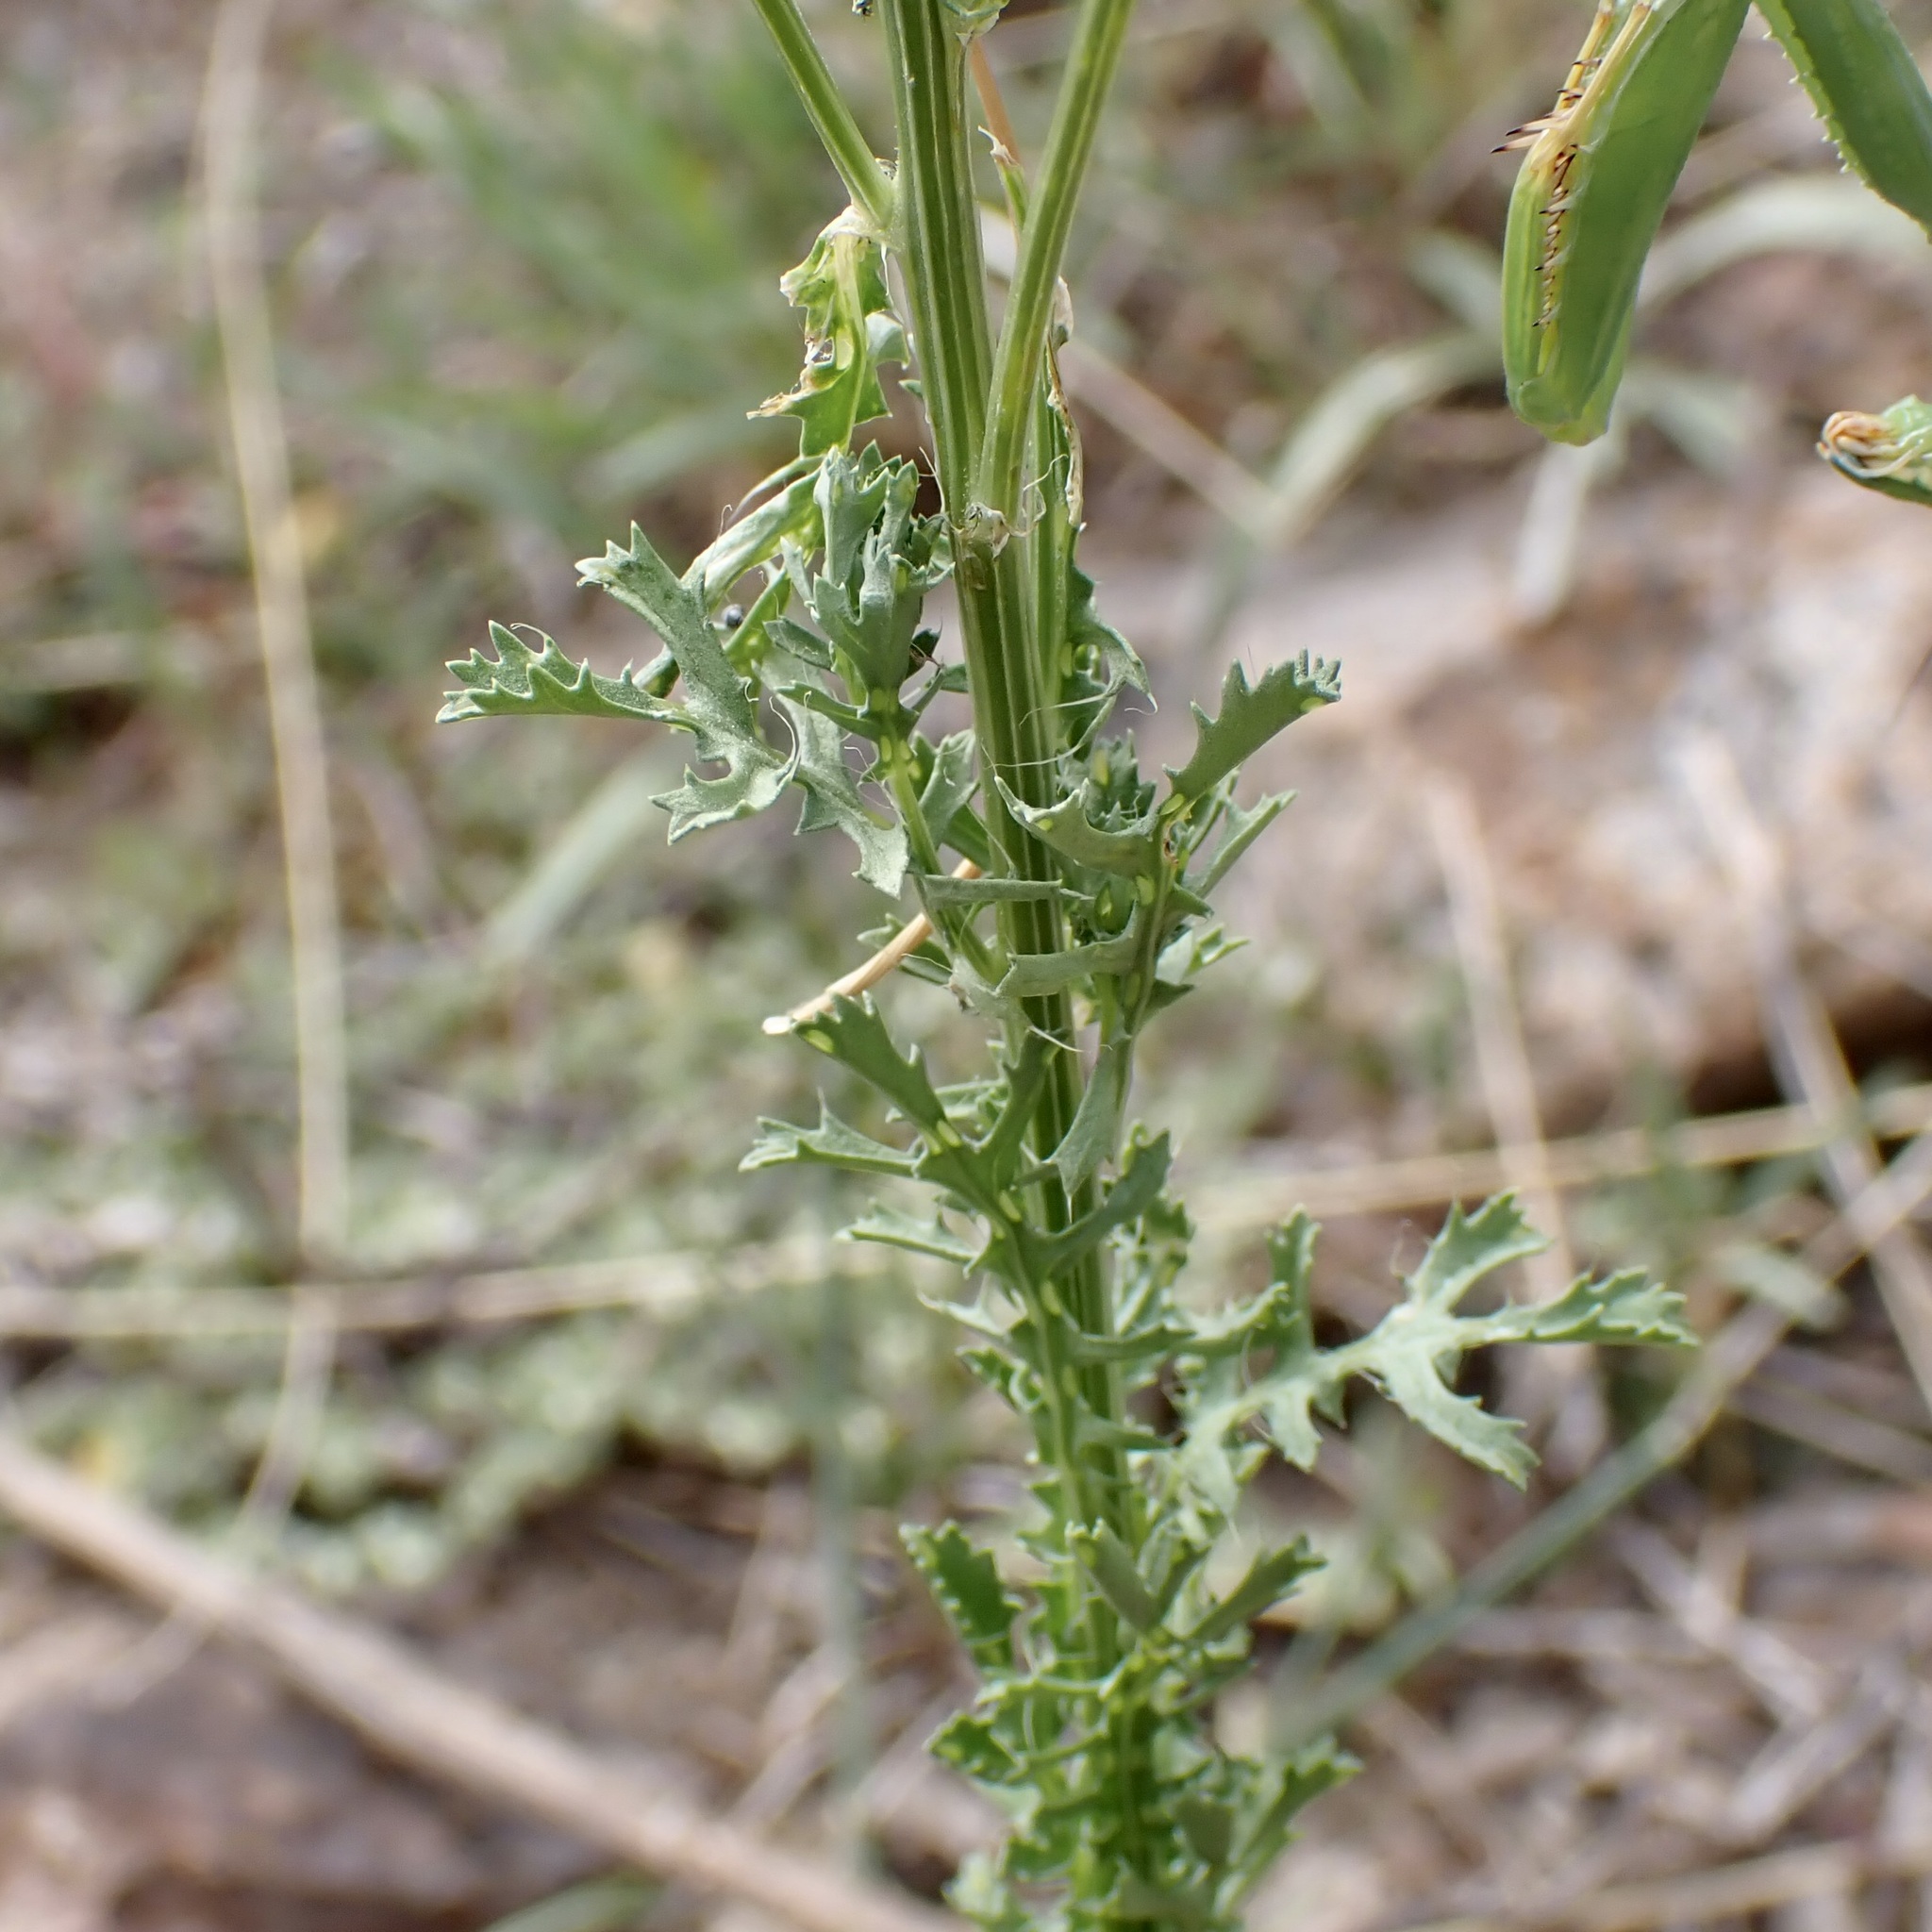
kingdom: Plantae
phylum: Tracheophyta
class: Magnoliopsida
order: Asterales
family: Asteraceae
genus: Adenophyllum
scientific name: Adenophyllum porophyllum
